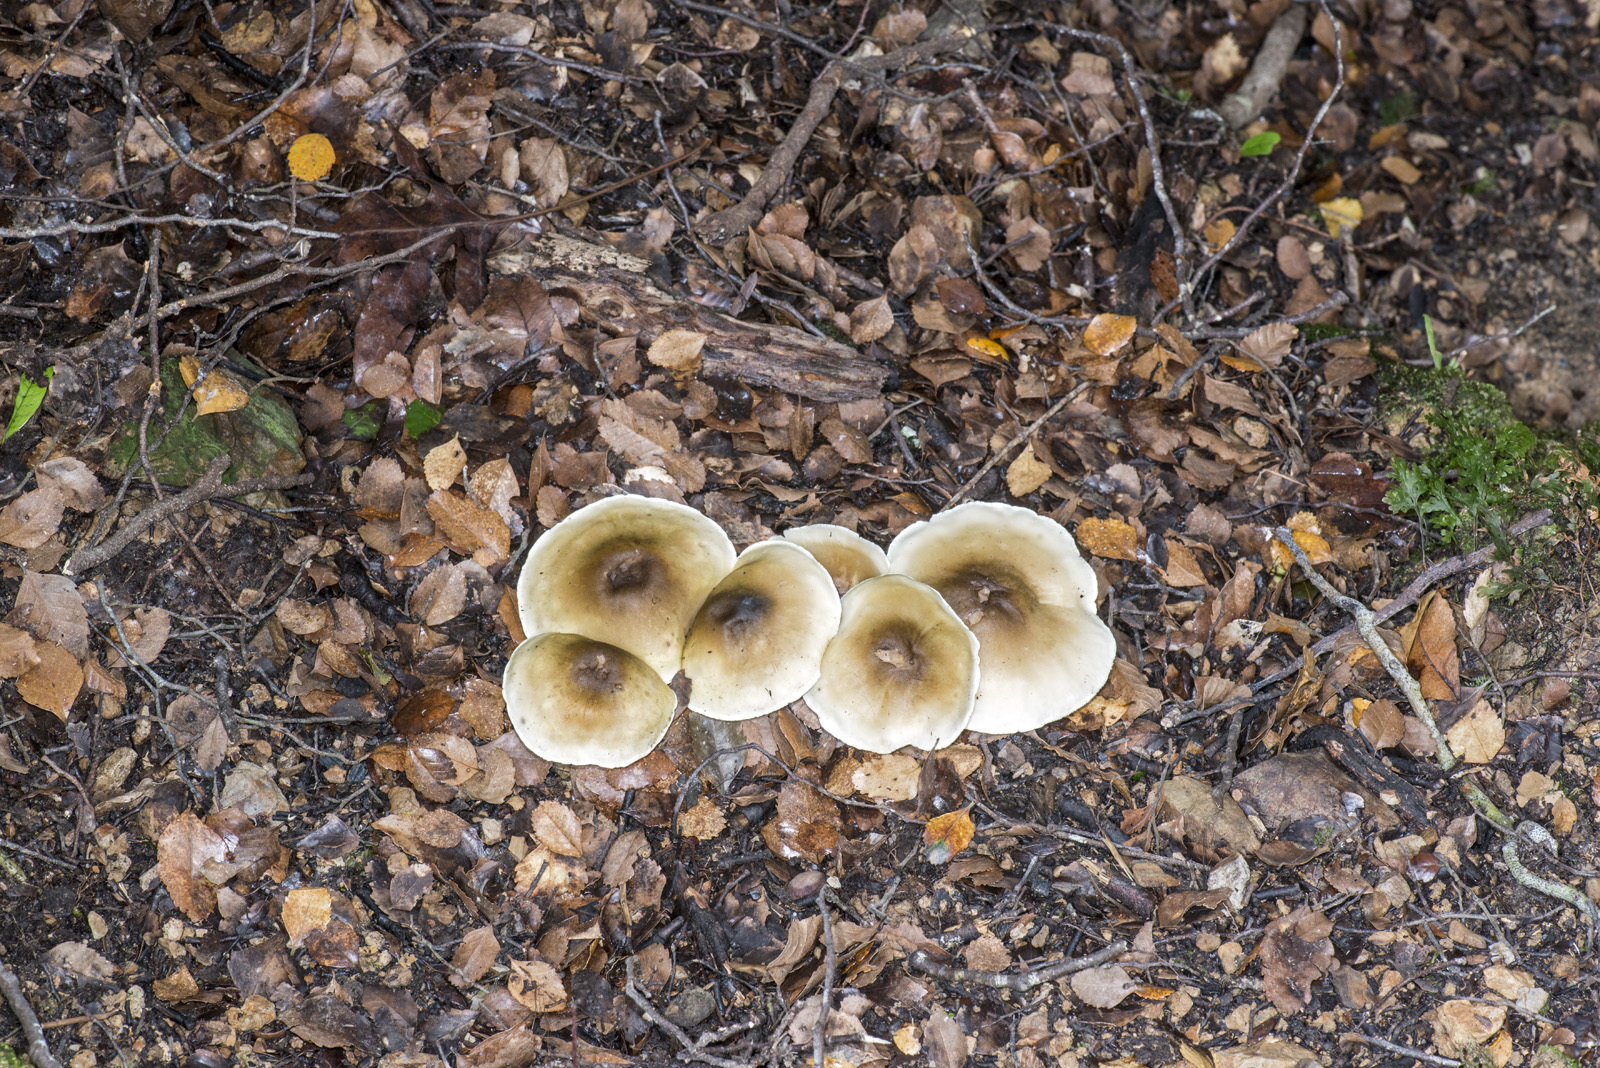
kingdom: Fungi
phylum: Basidiomycota
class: Agaricomycetes
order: Agaricales
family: Tricholomataceae
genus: Tricholoma
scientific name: Tricholoma viridiolivaceum
